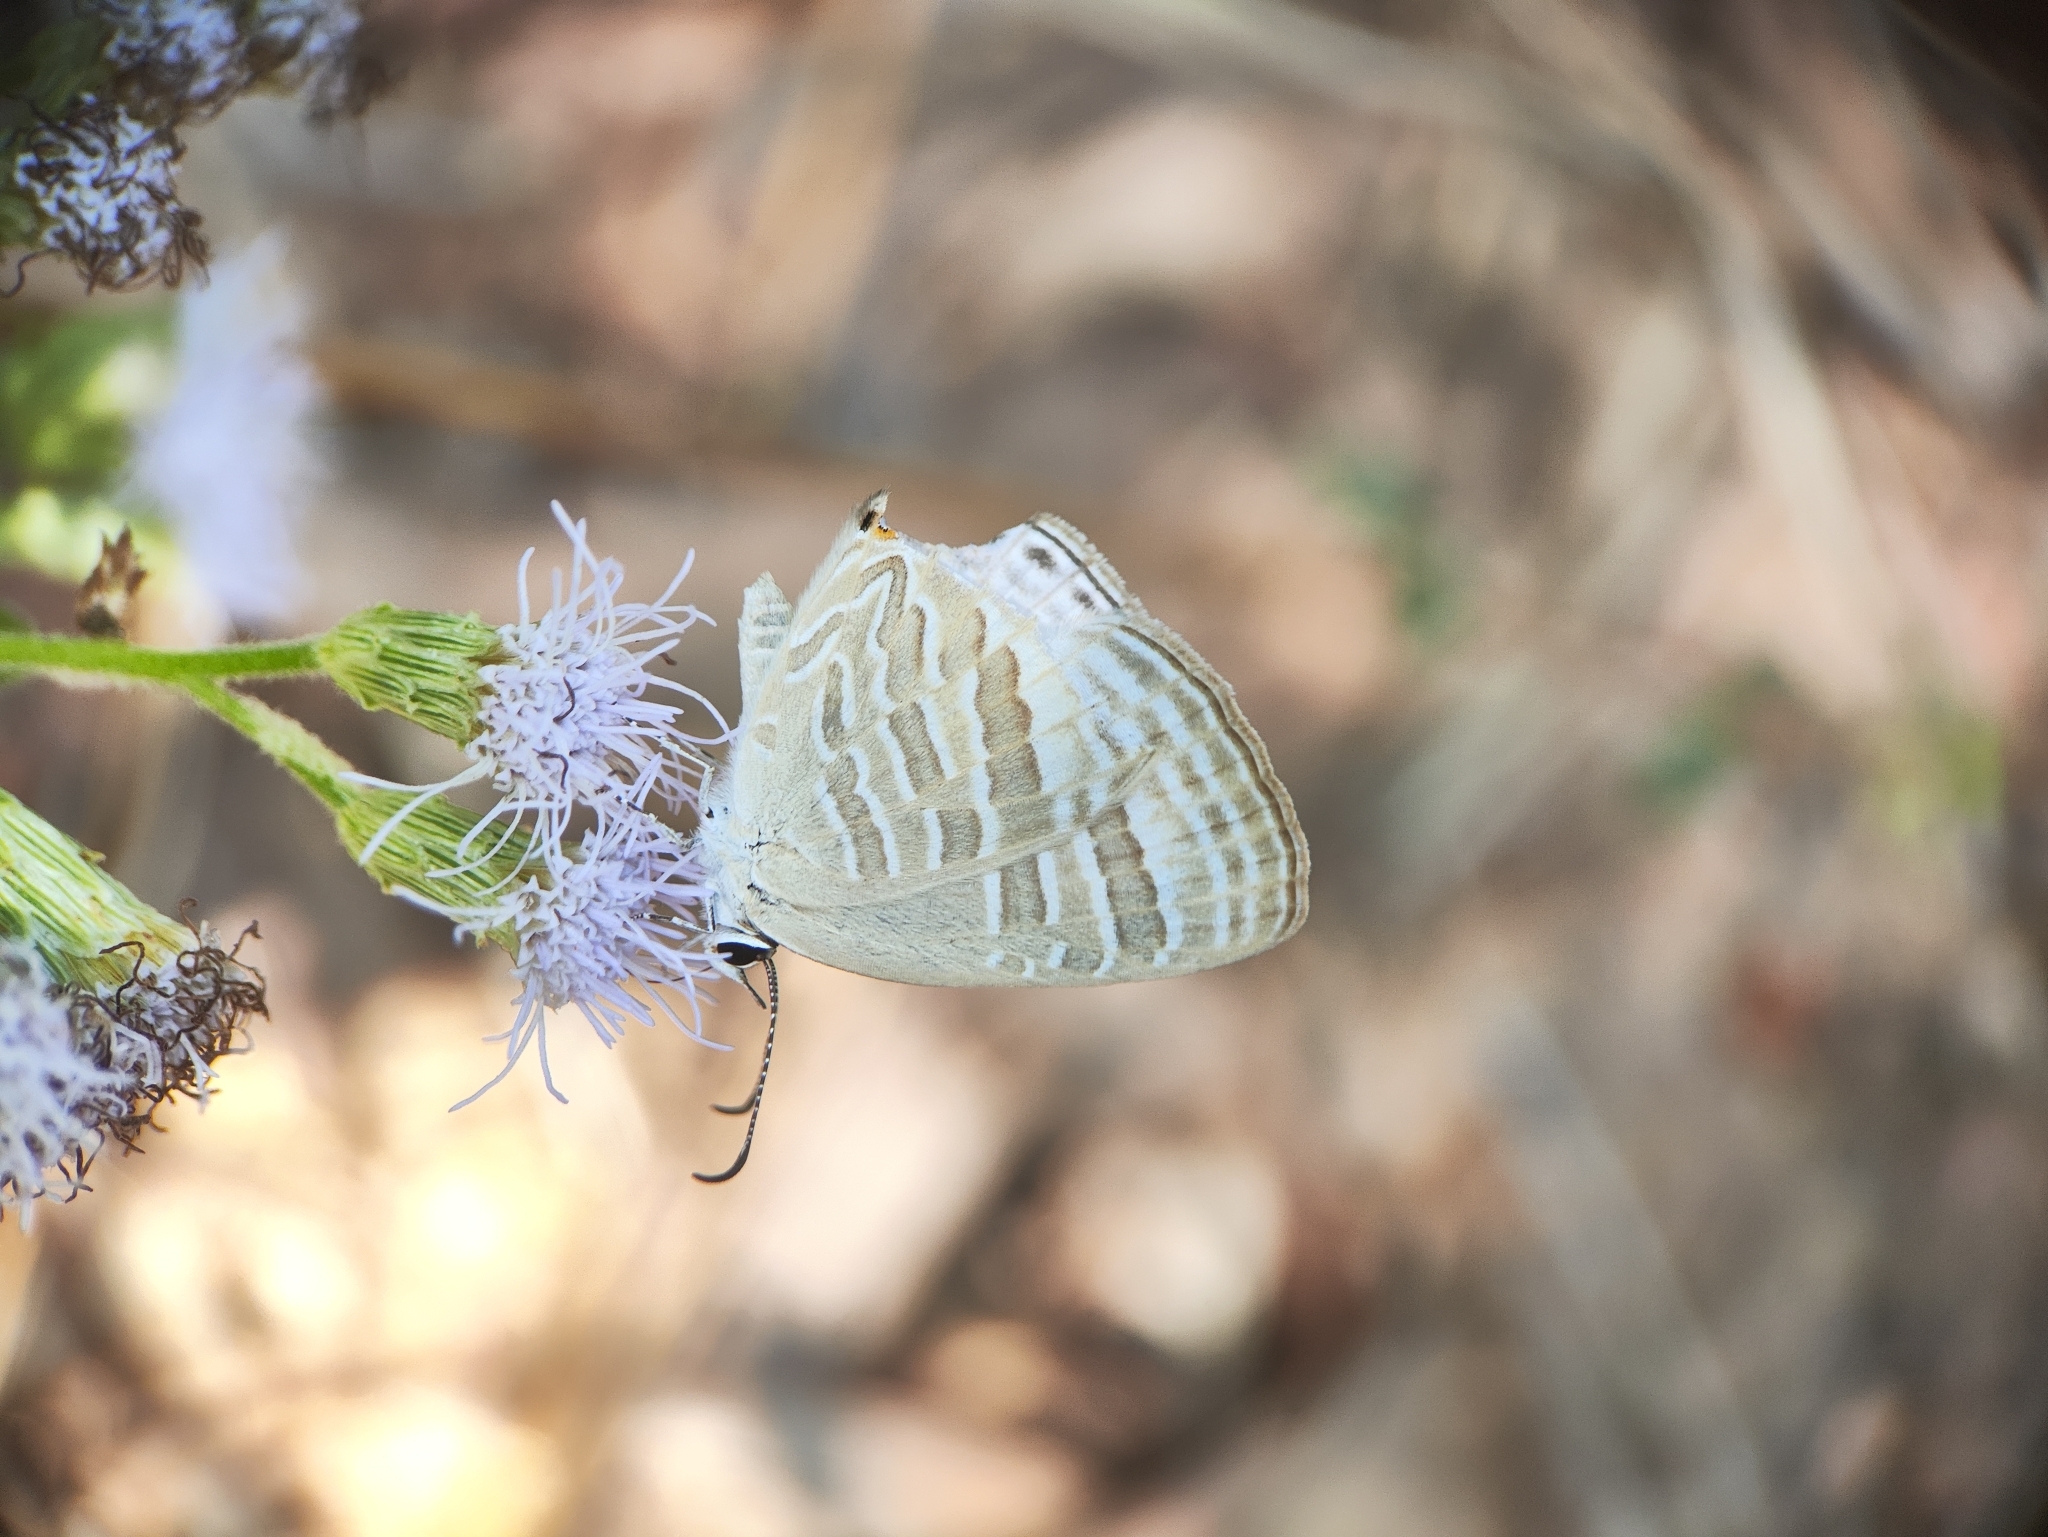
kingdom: Animalia
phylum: Arthropoda
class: Insecta
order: Lepidoptera
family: Lycaenidae
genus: Jamides
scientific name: Jamides celeno
